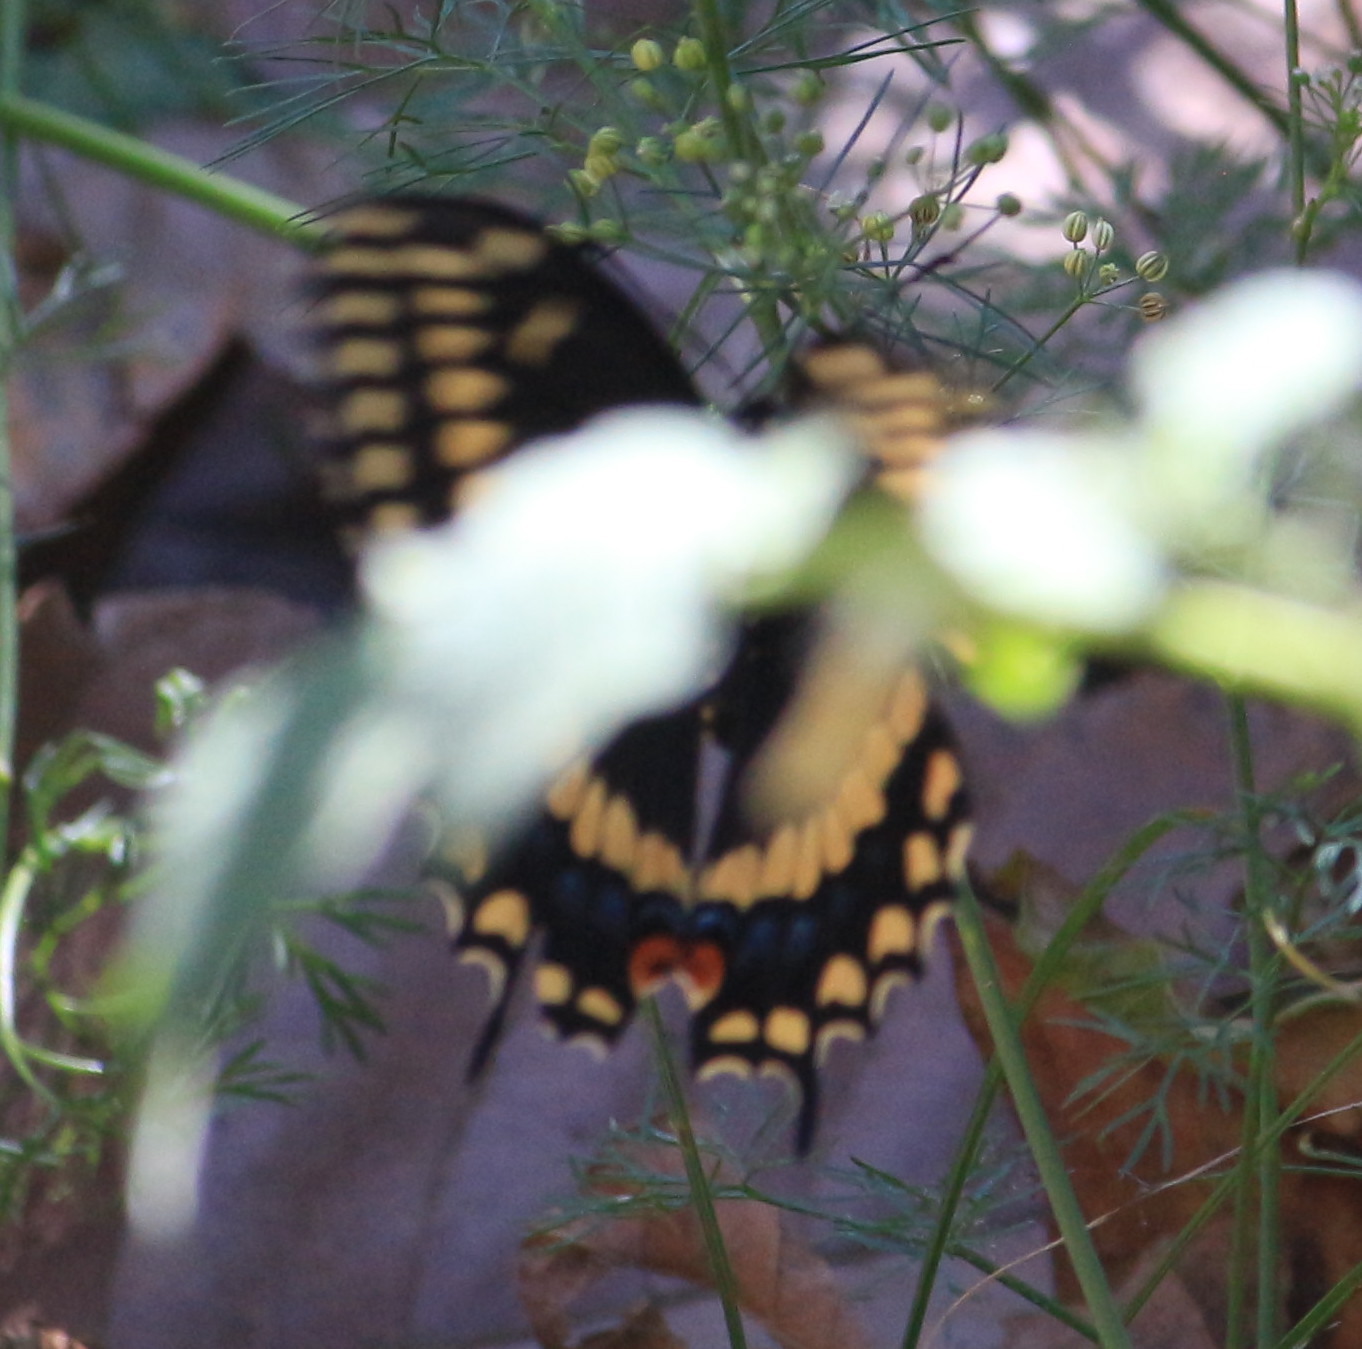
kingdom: Animalia
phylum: Arthropoda
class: Insecta
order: Lepidoptera
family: Papilionidae
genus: Papilio
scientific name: Papilio polyxenes
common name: Black swallowtail
